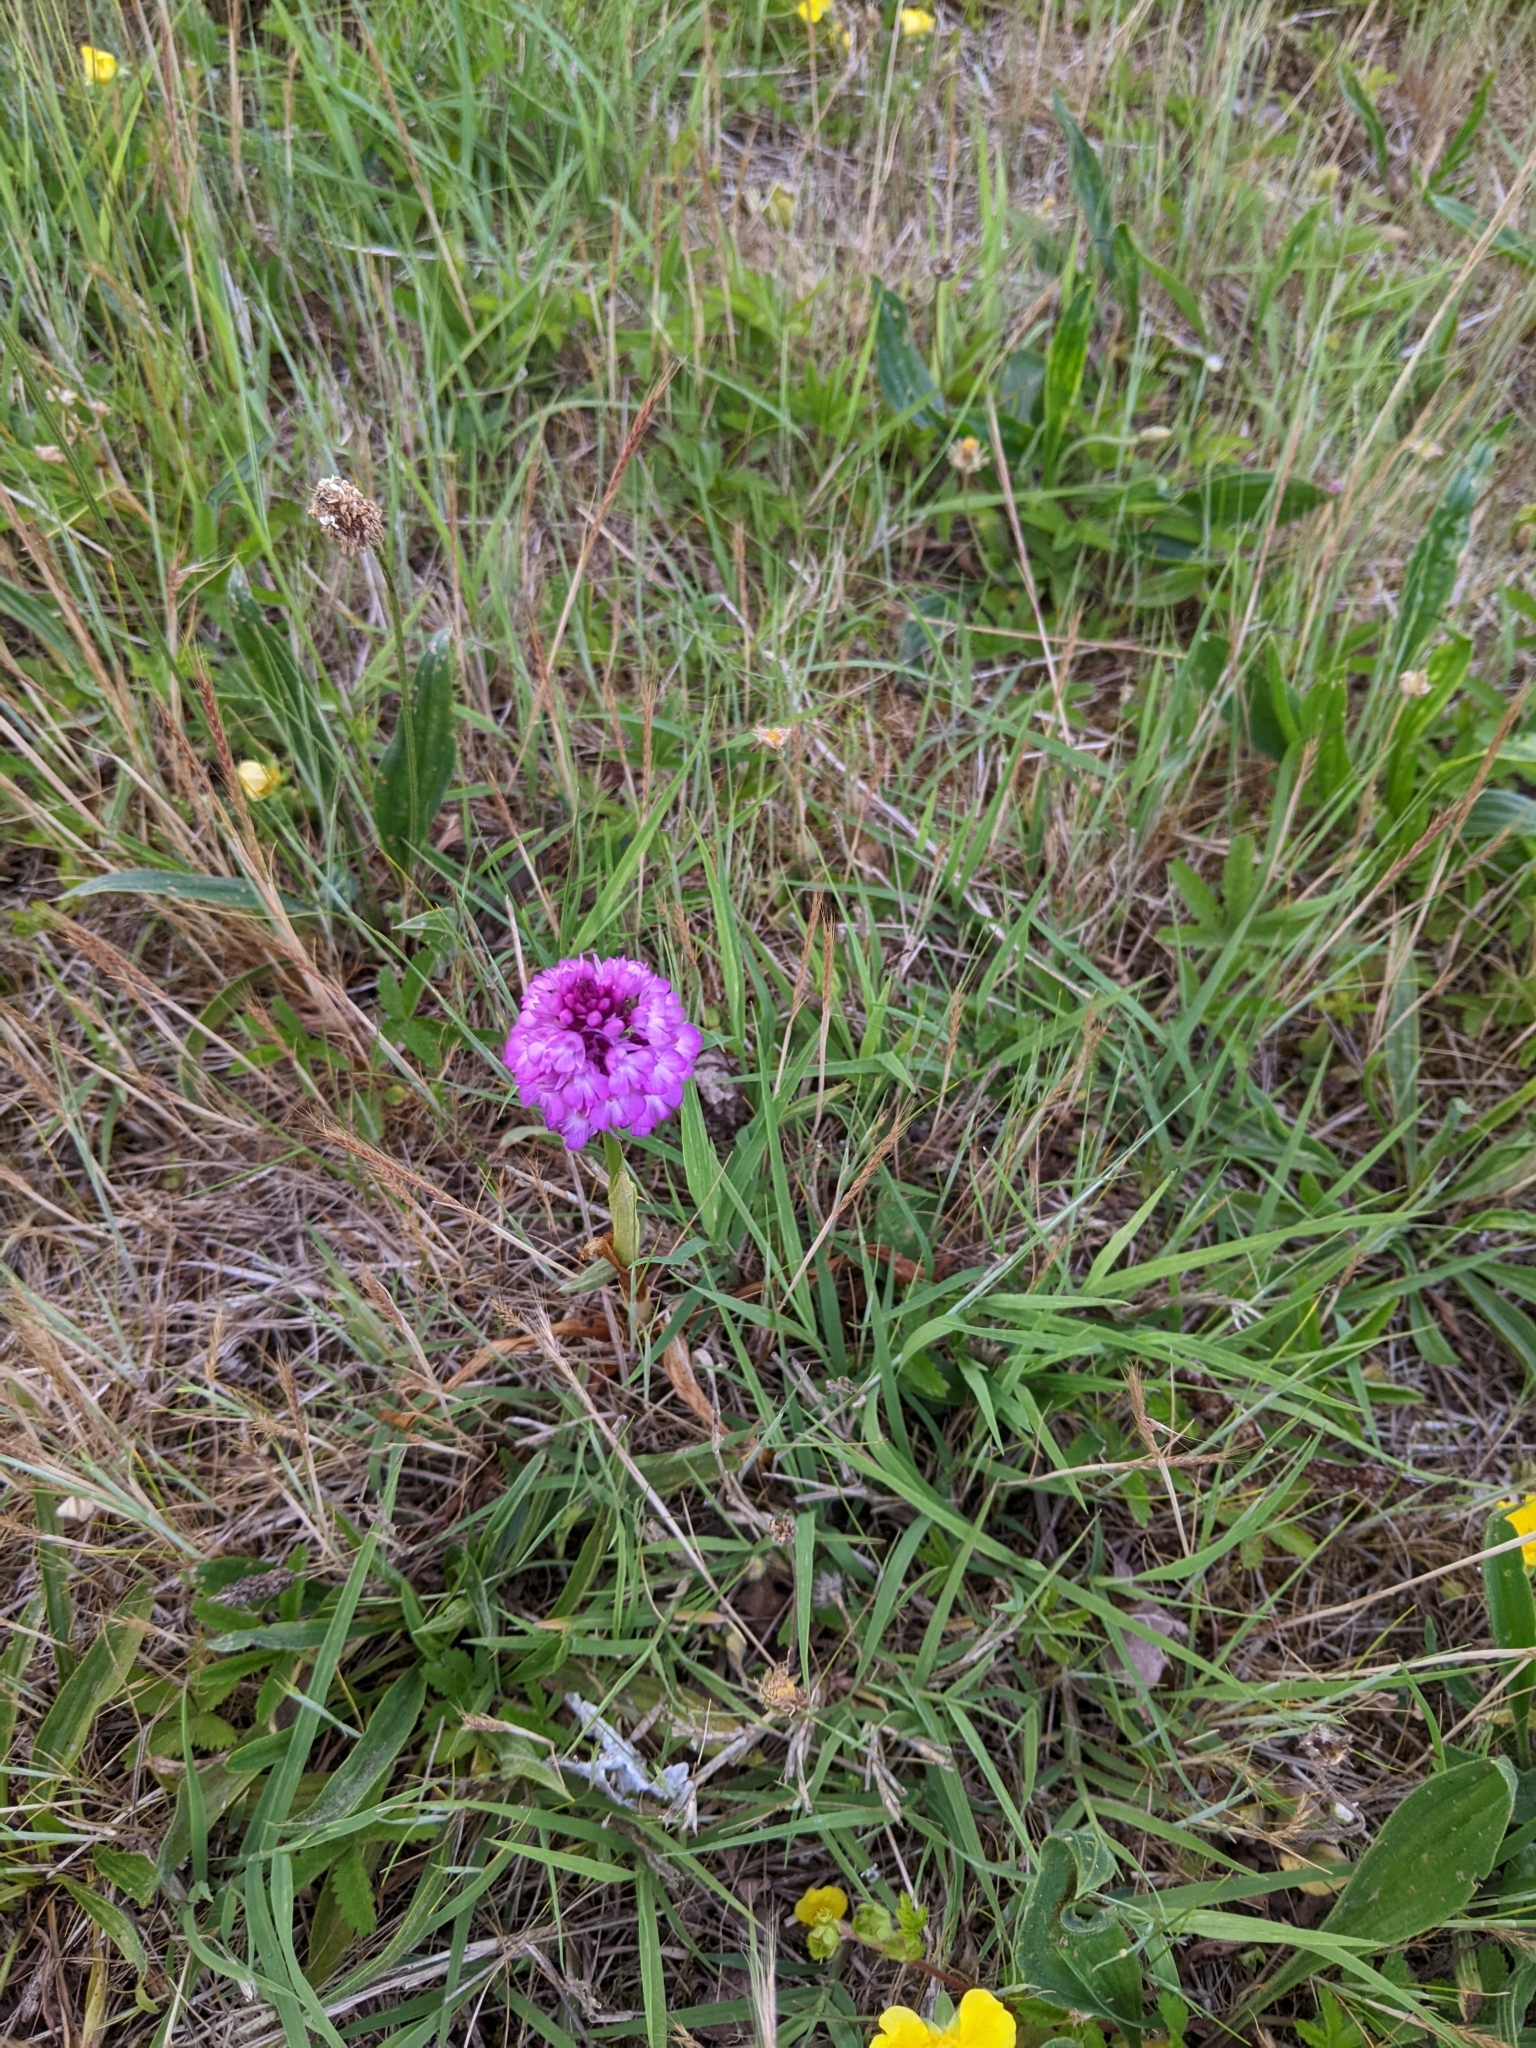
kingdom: Plantae
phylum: Tracheophyta
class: Liliopsida
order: Asparagales
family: Orchidaceae
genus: Anacamptis
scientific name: Anacamptis pyramidalis
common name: Pyramidal orchid
